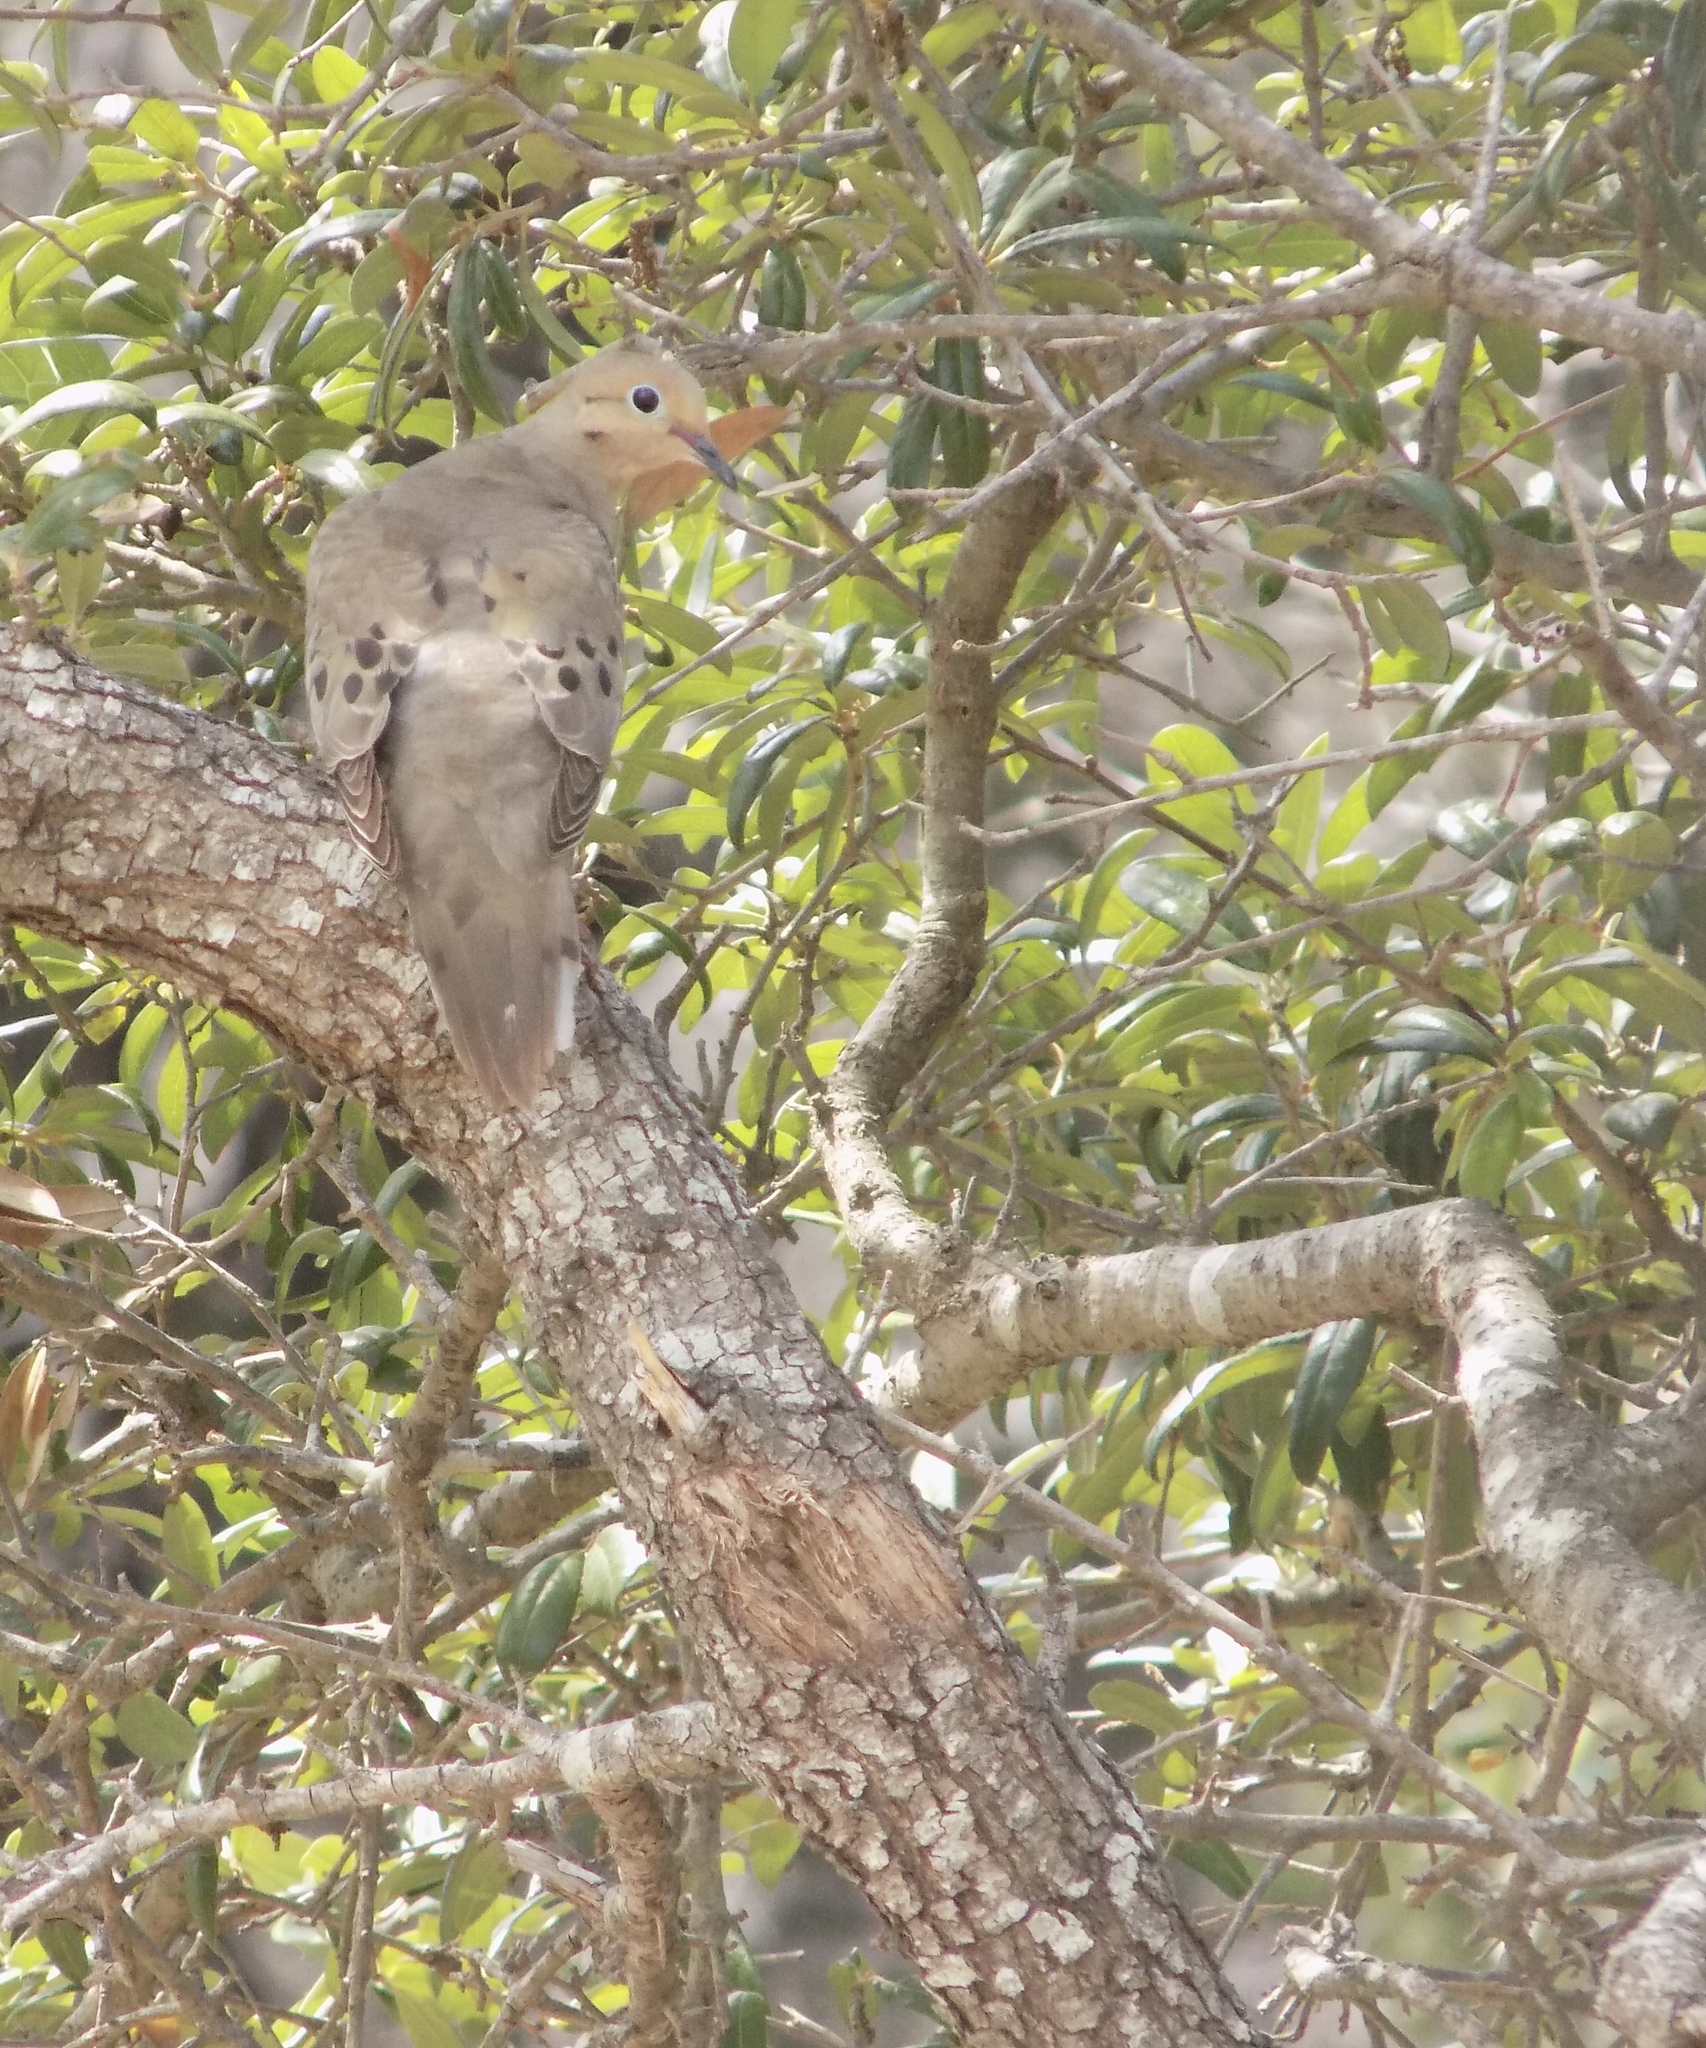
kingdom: Animalia
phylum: Chordata
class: Aves
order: Columbiformes
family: Columbidae
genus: Zenaida
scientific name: Zenaida macroura
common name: Mourning dove
